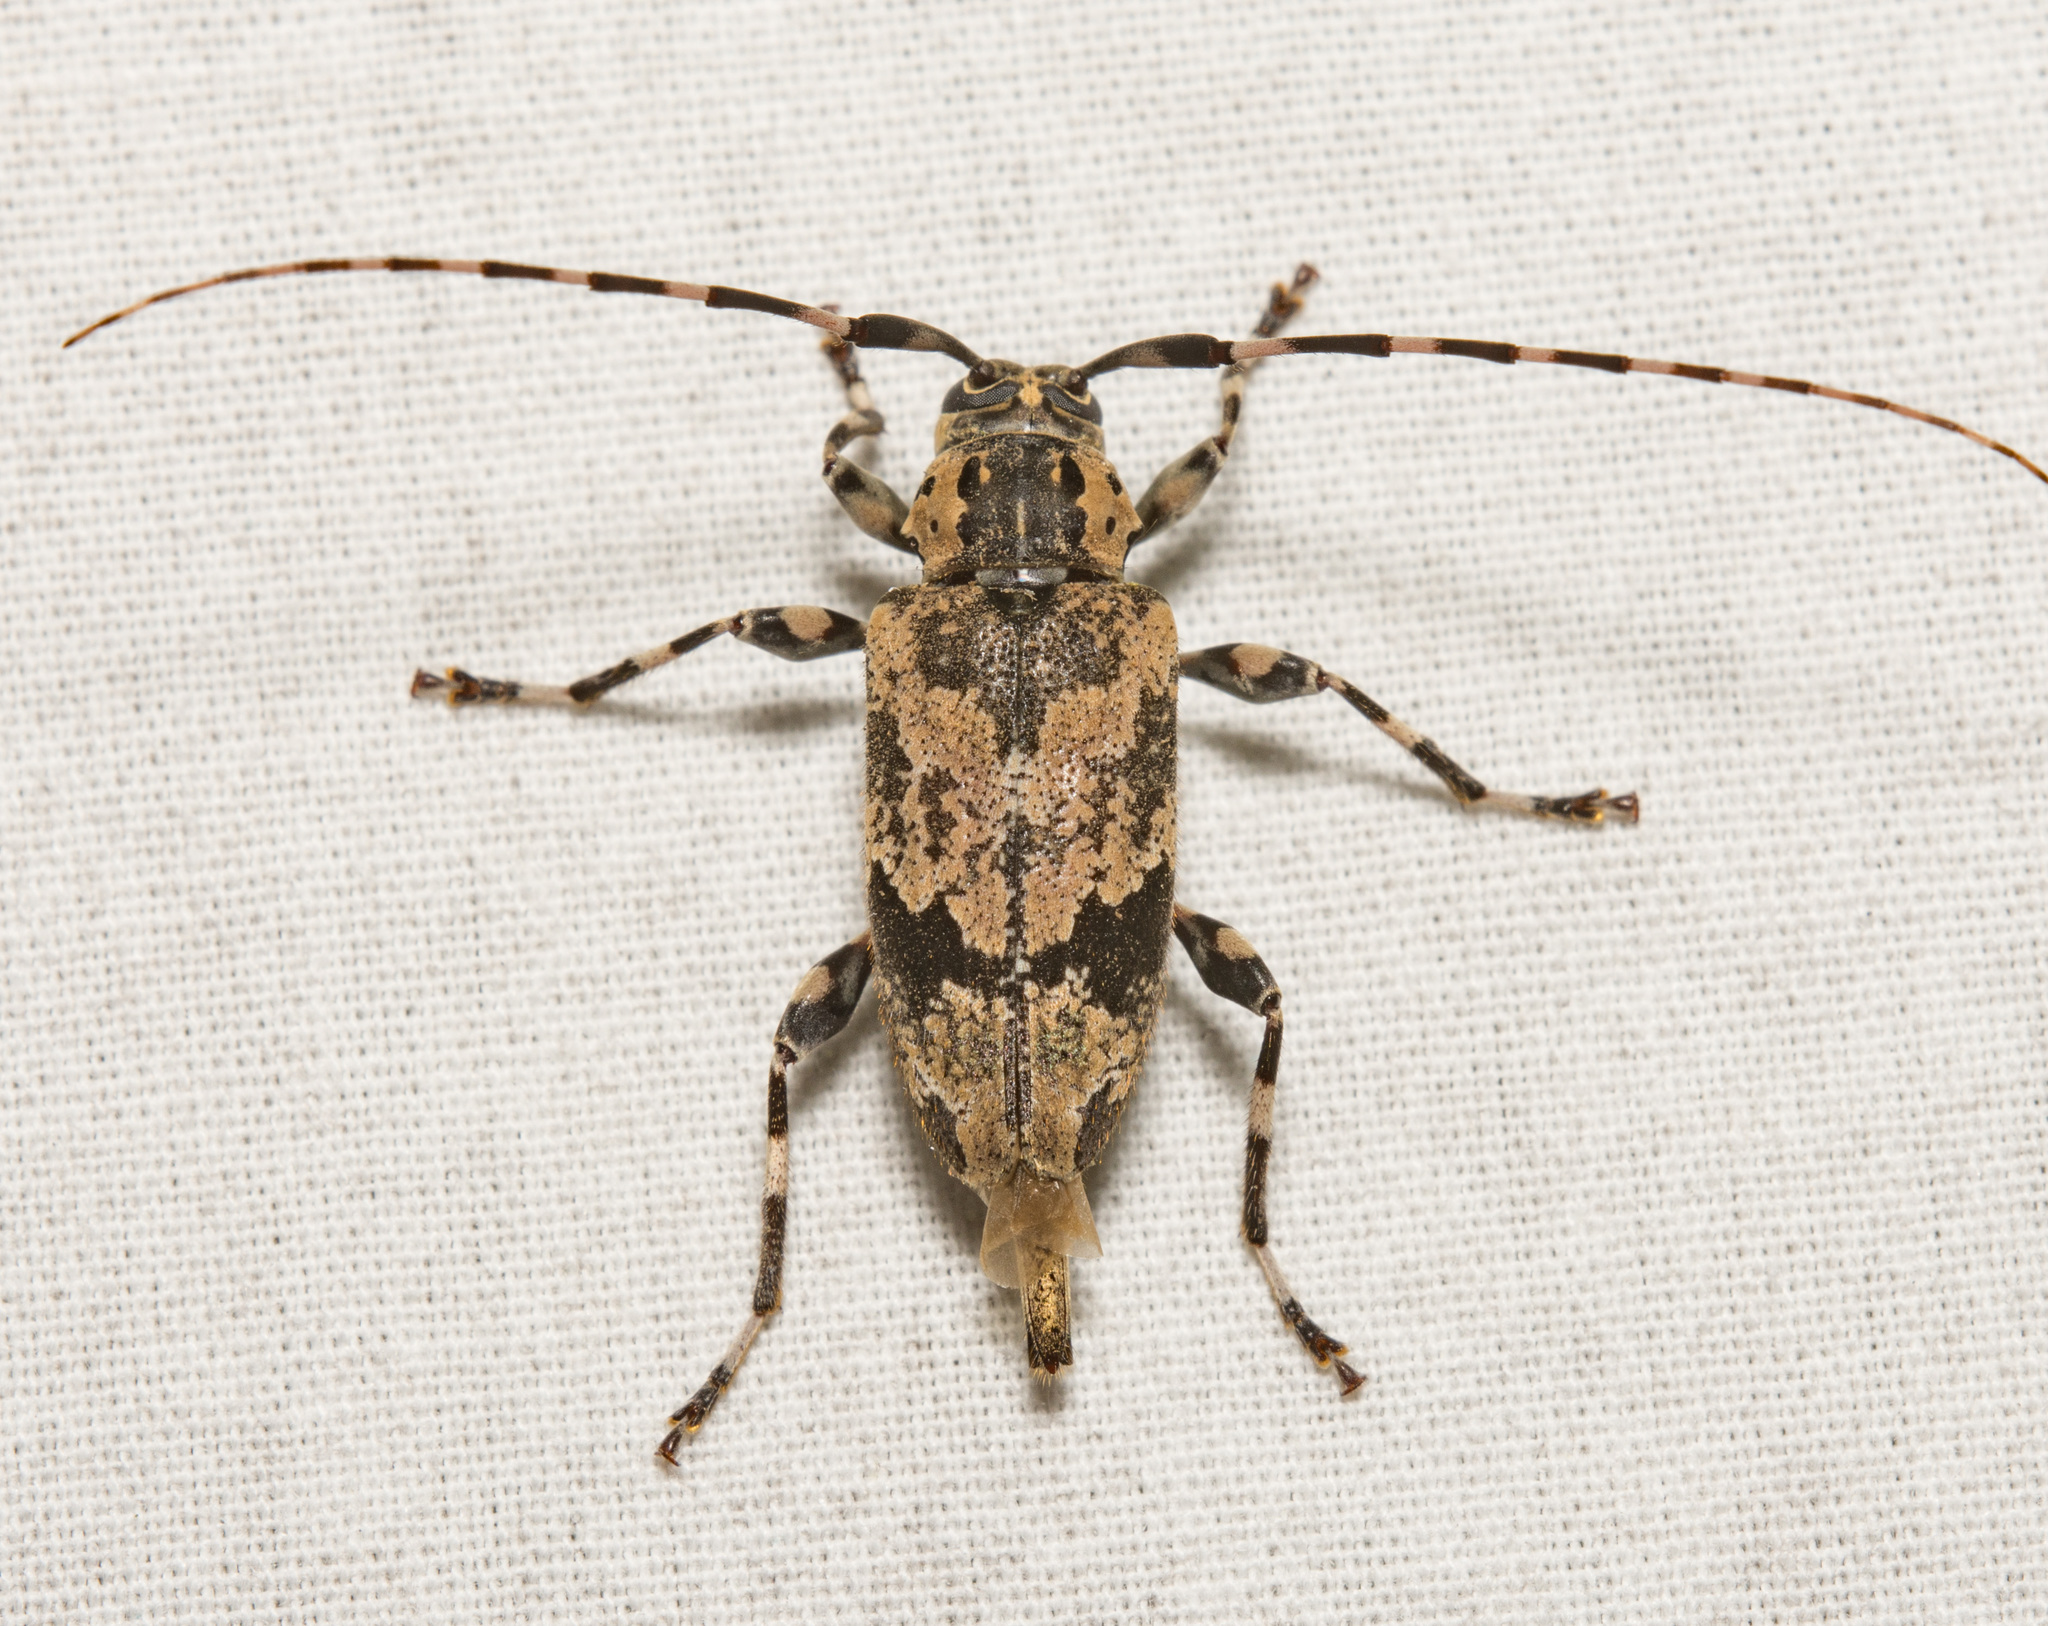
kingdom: Animalia
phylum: Arthropoda
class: Insecta
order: Coleoptera
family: Cerambycidae
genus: Graphisurus
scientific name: Graphisurus triangulifer
